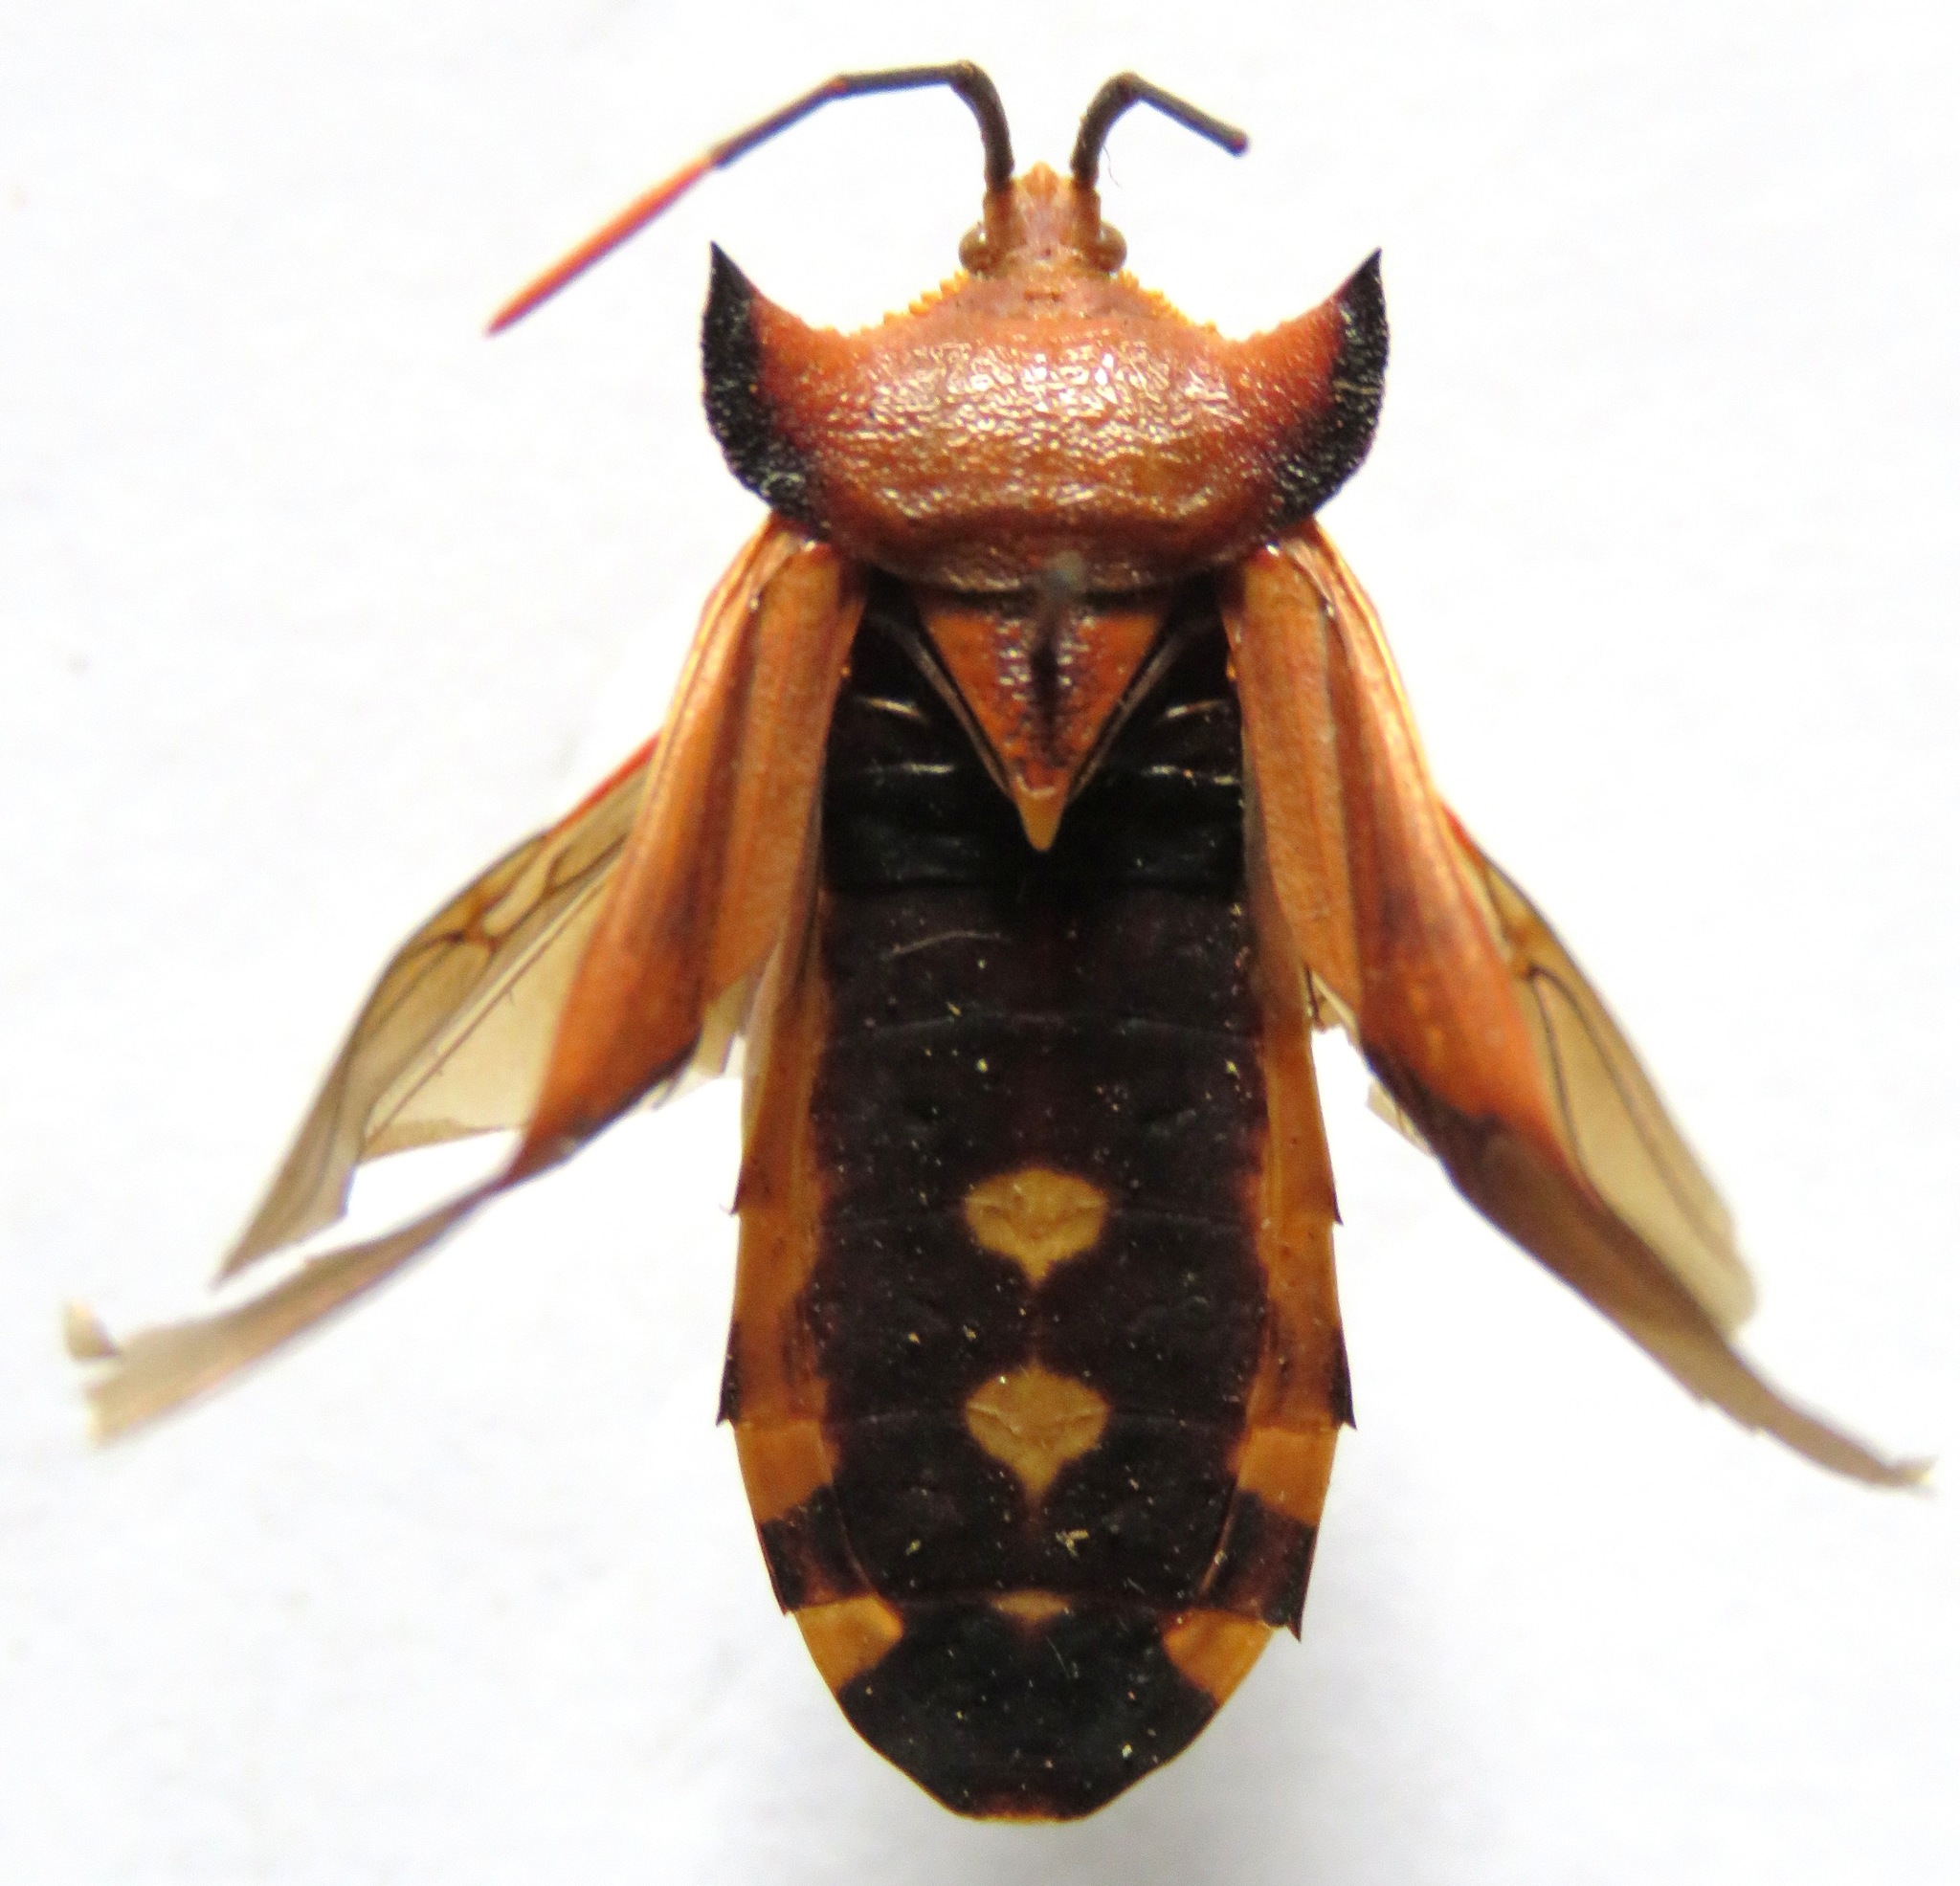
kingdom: Animalia
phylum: Arthropoda
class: Insecta
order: Hemiptera
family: Coreidae
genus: Mozena
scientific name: Mozena lunata
